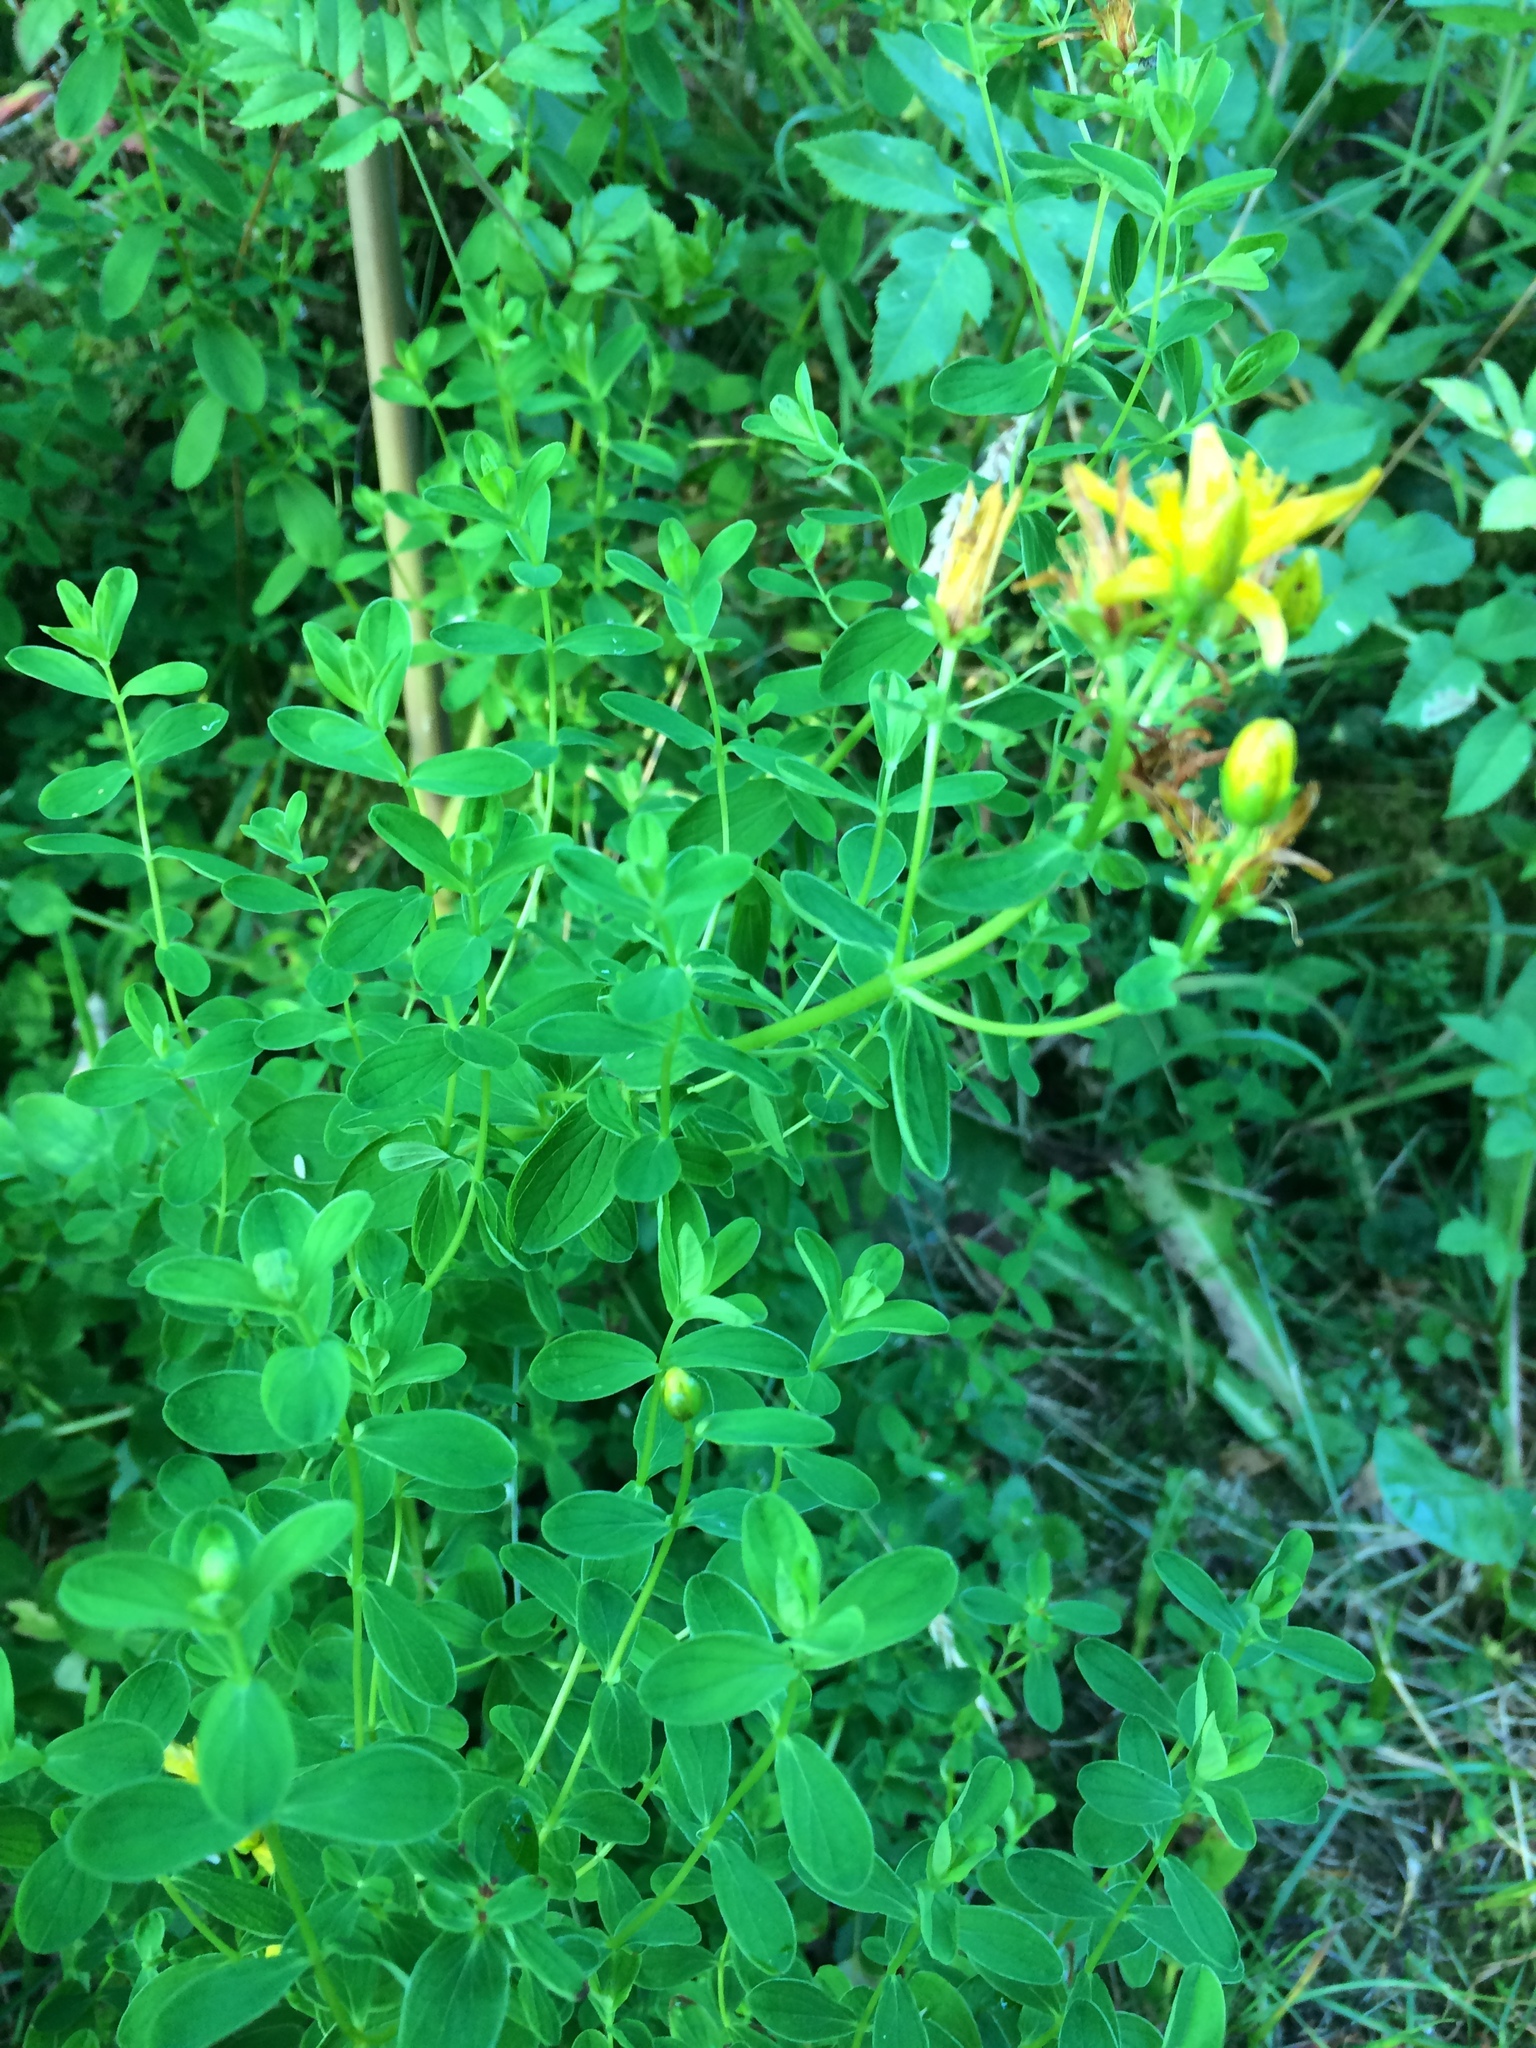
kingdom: Plantae
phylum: Tracheophyta
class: Magnoliopsida
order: Malpighiales
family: Hypericaceae
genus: Hypericum
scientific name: Hypericum maculatum
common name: Imperforate st. john's-wort
